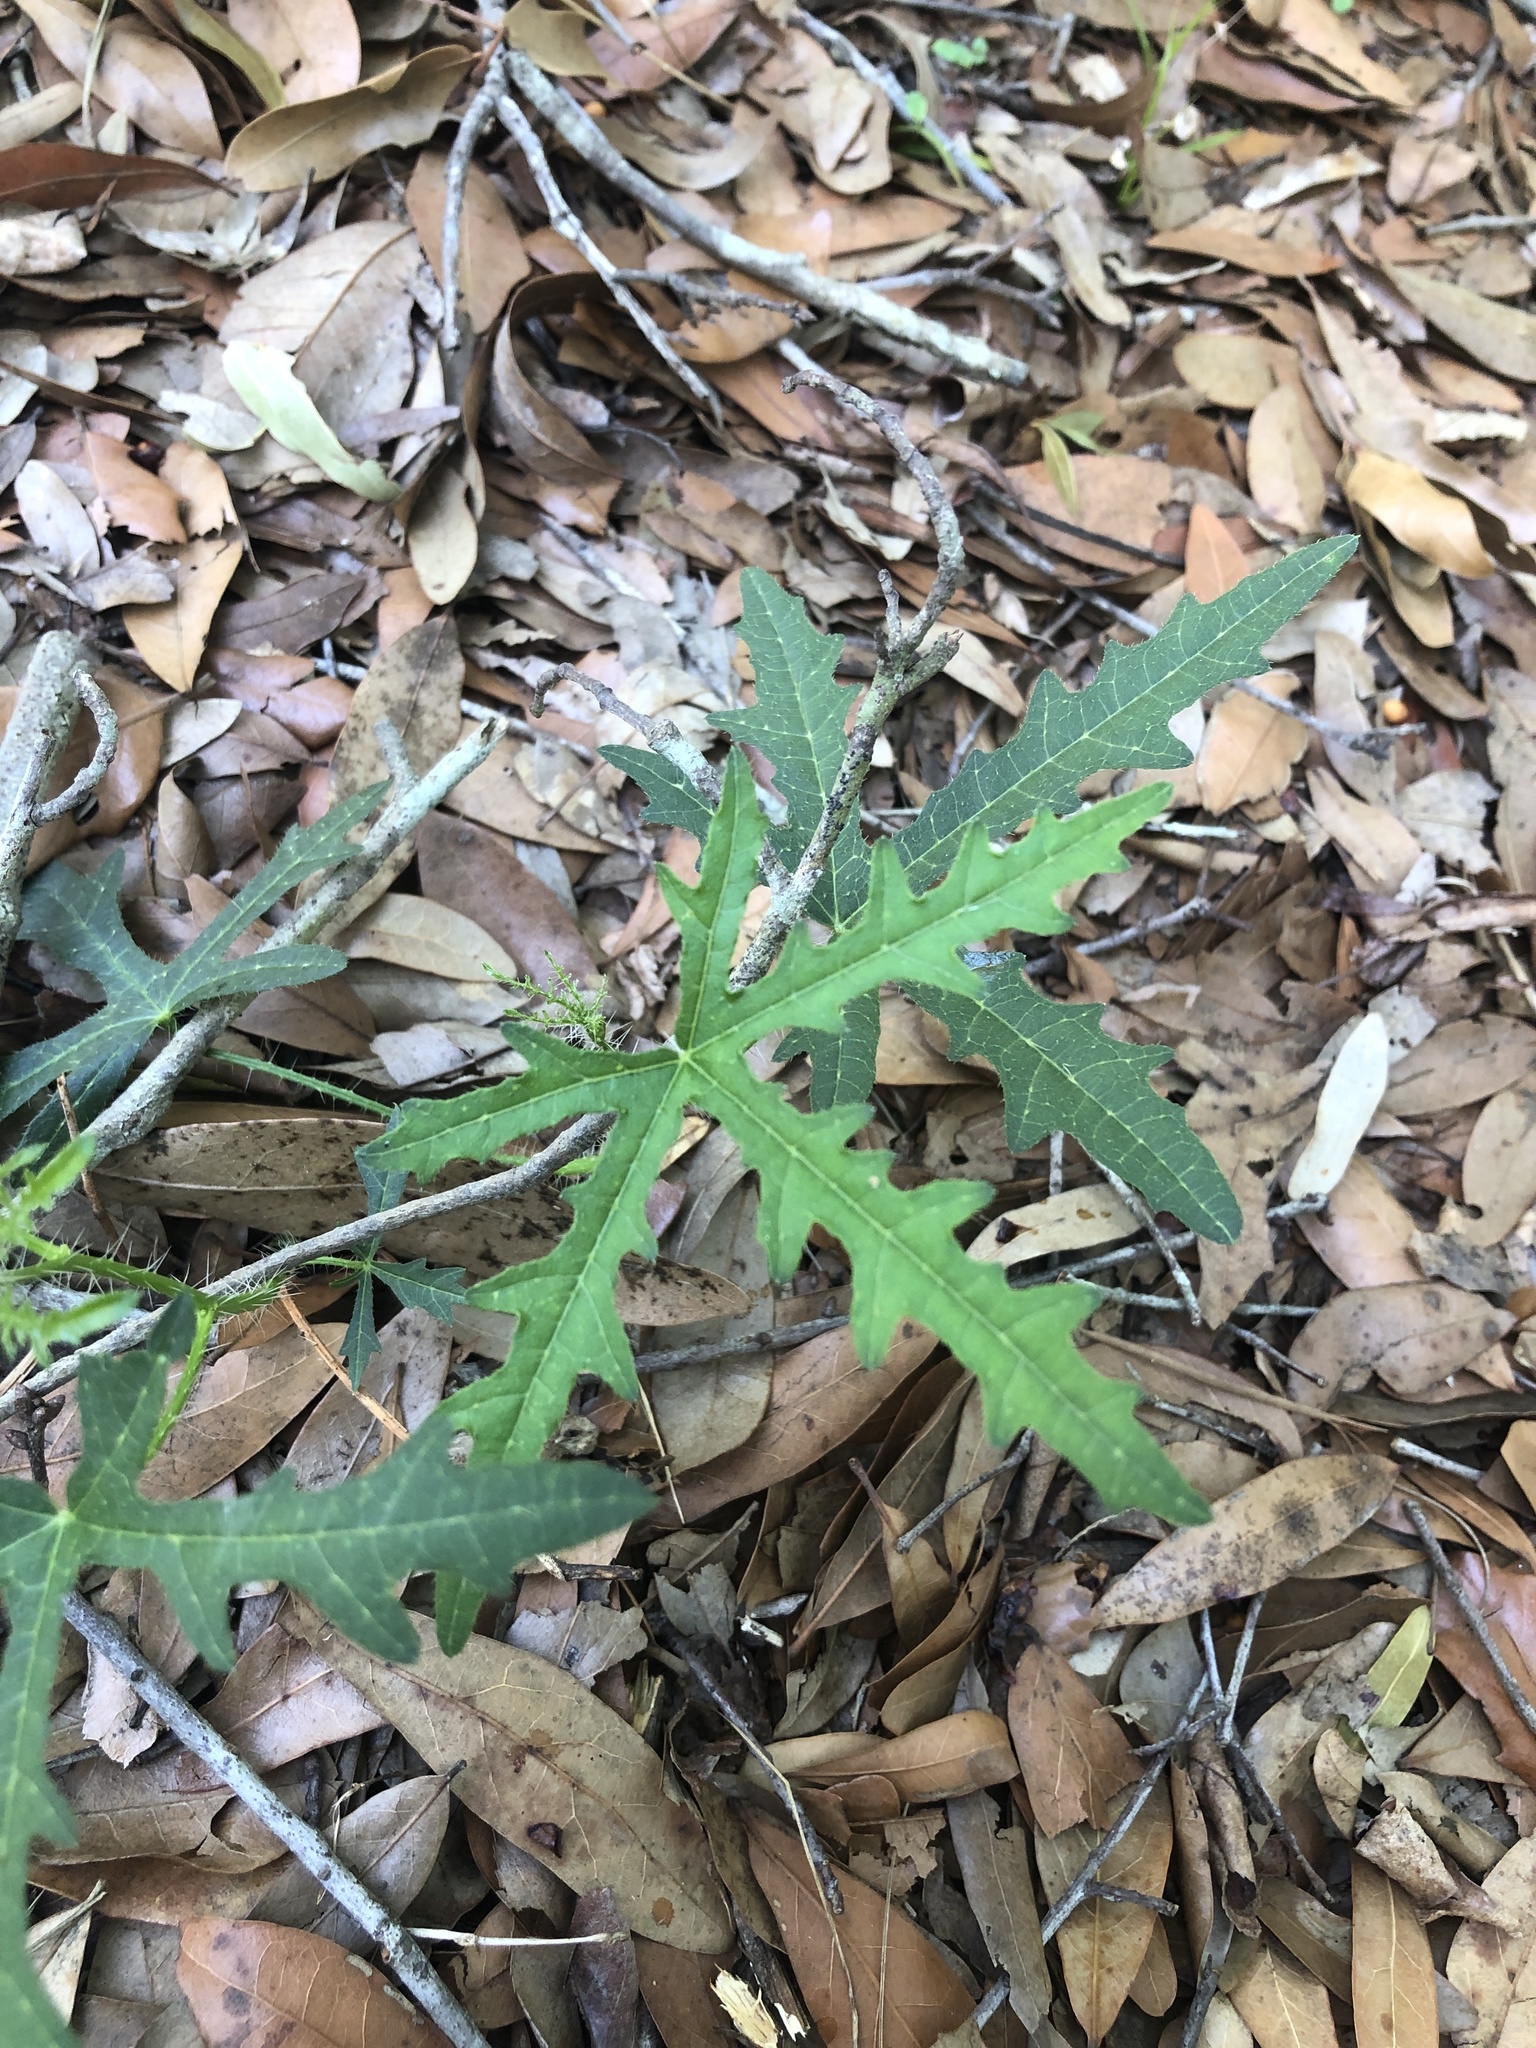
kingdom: Plantae
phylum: Tracheophyta
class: Magnoliopsida
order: Malpighiales
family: Euphorbiaceae
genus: Cnidoscolus
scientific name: Cnidoscolus stimulosus
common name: Bull-nettle
